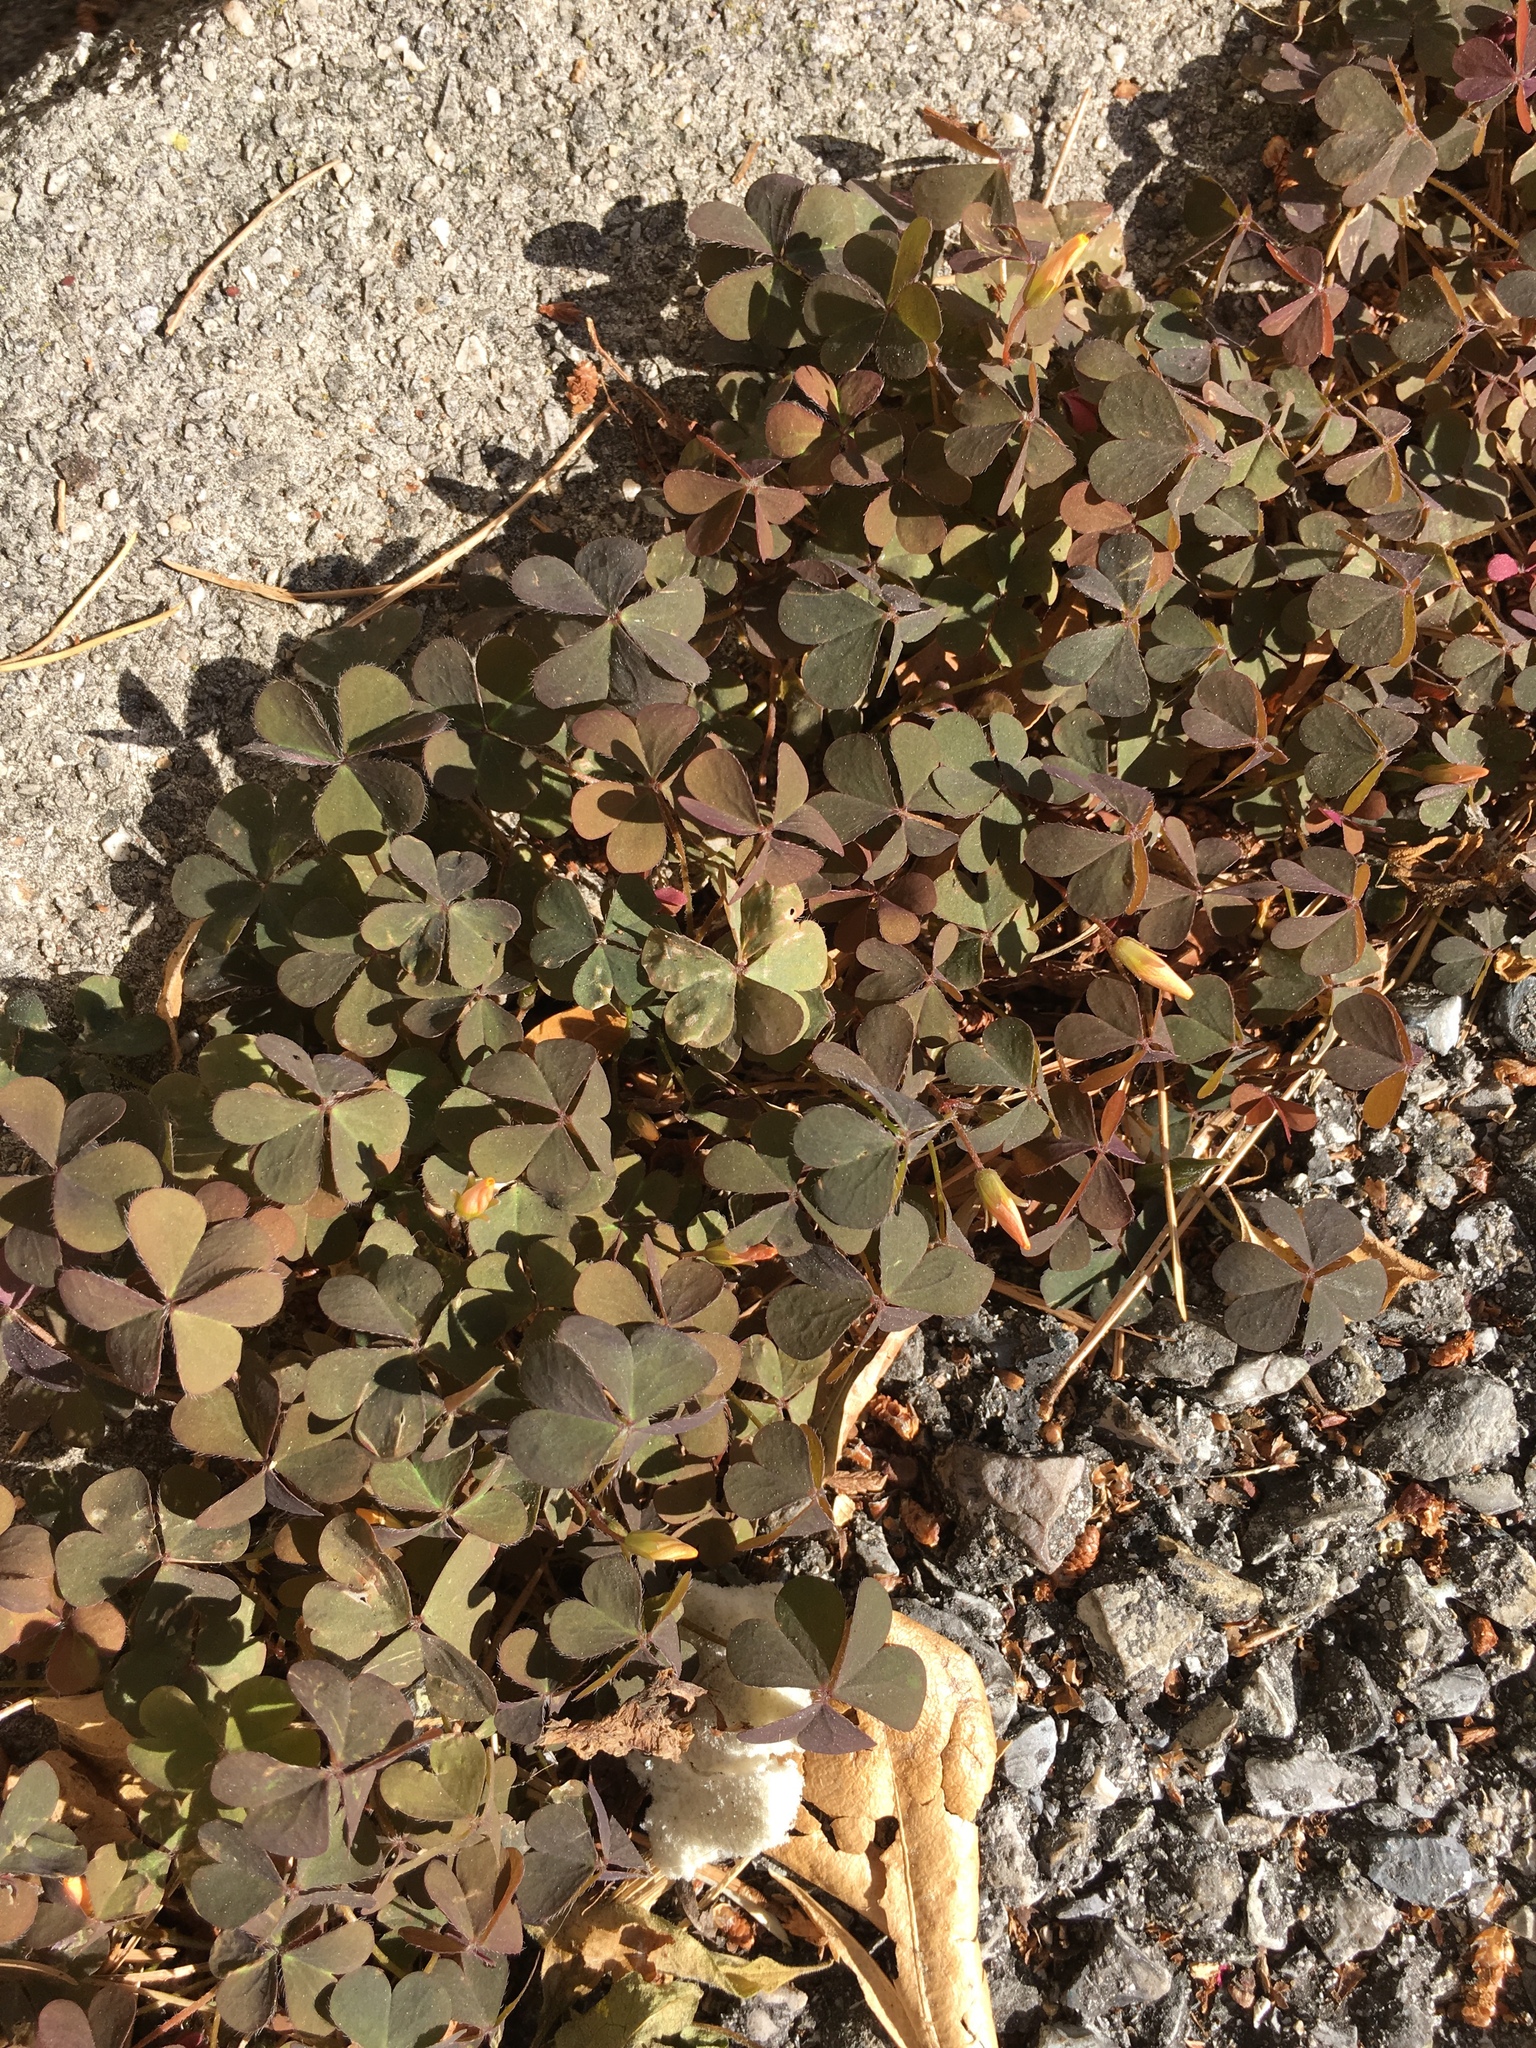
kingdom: Plantae
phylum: Tracheophyta
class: Magnoliopsida
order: Oxalidales
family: Oxalidaceae
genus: Oxalis
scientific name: Oxalis corniculata
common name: Procumbent yellow-sorrel
